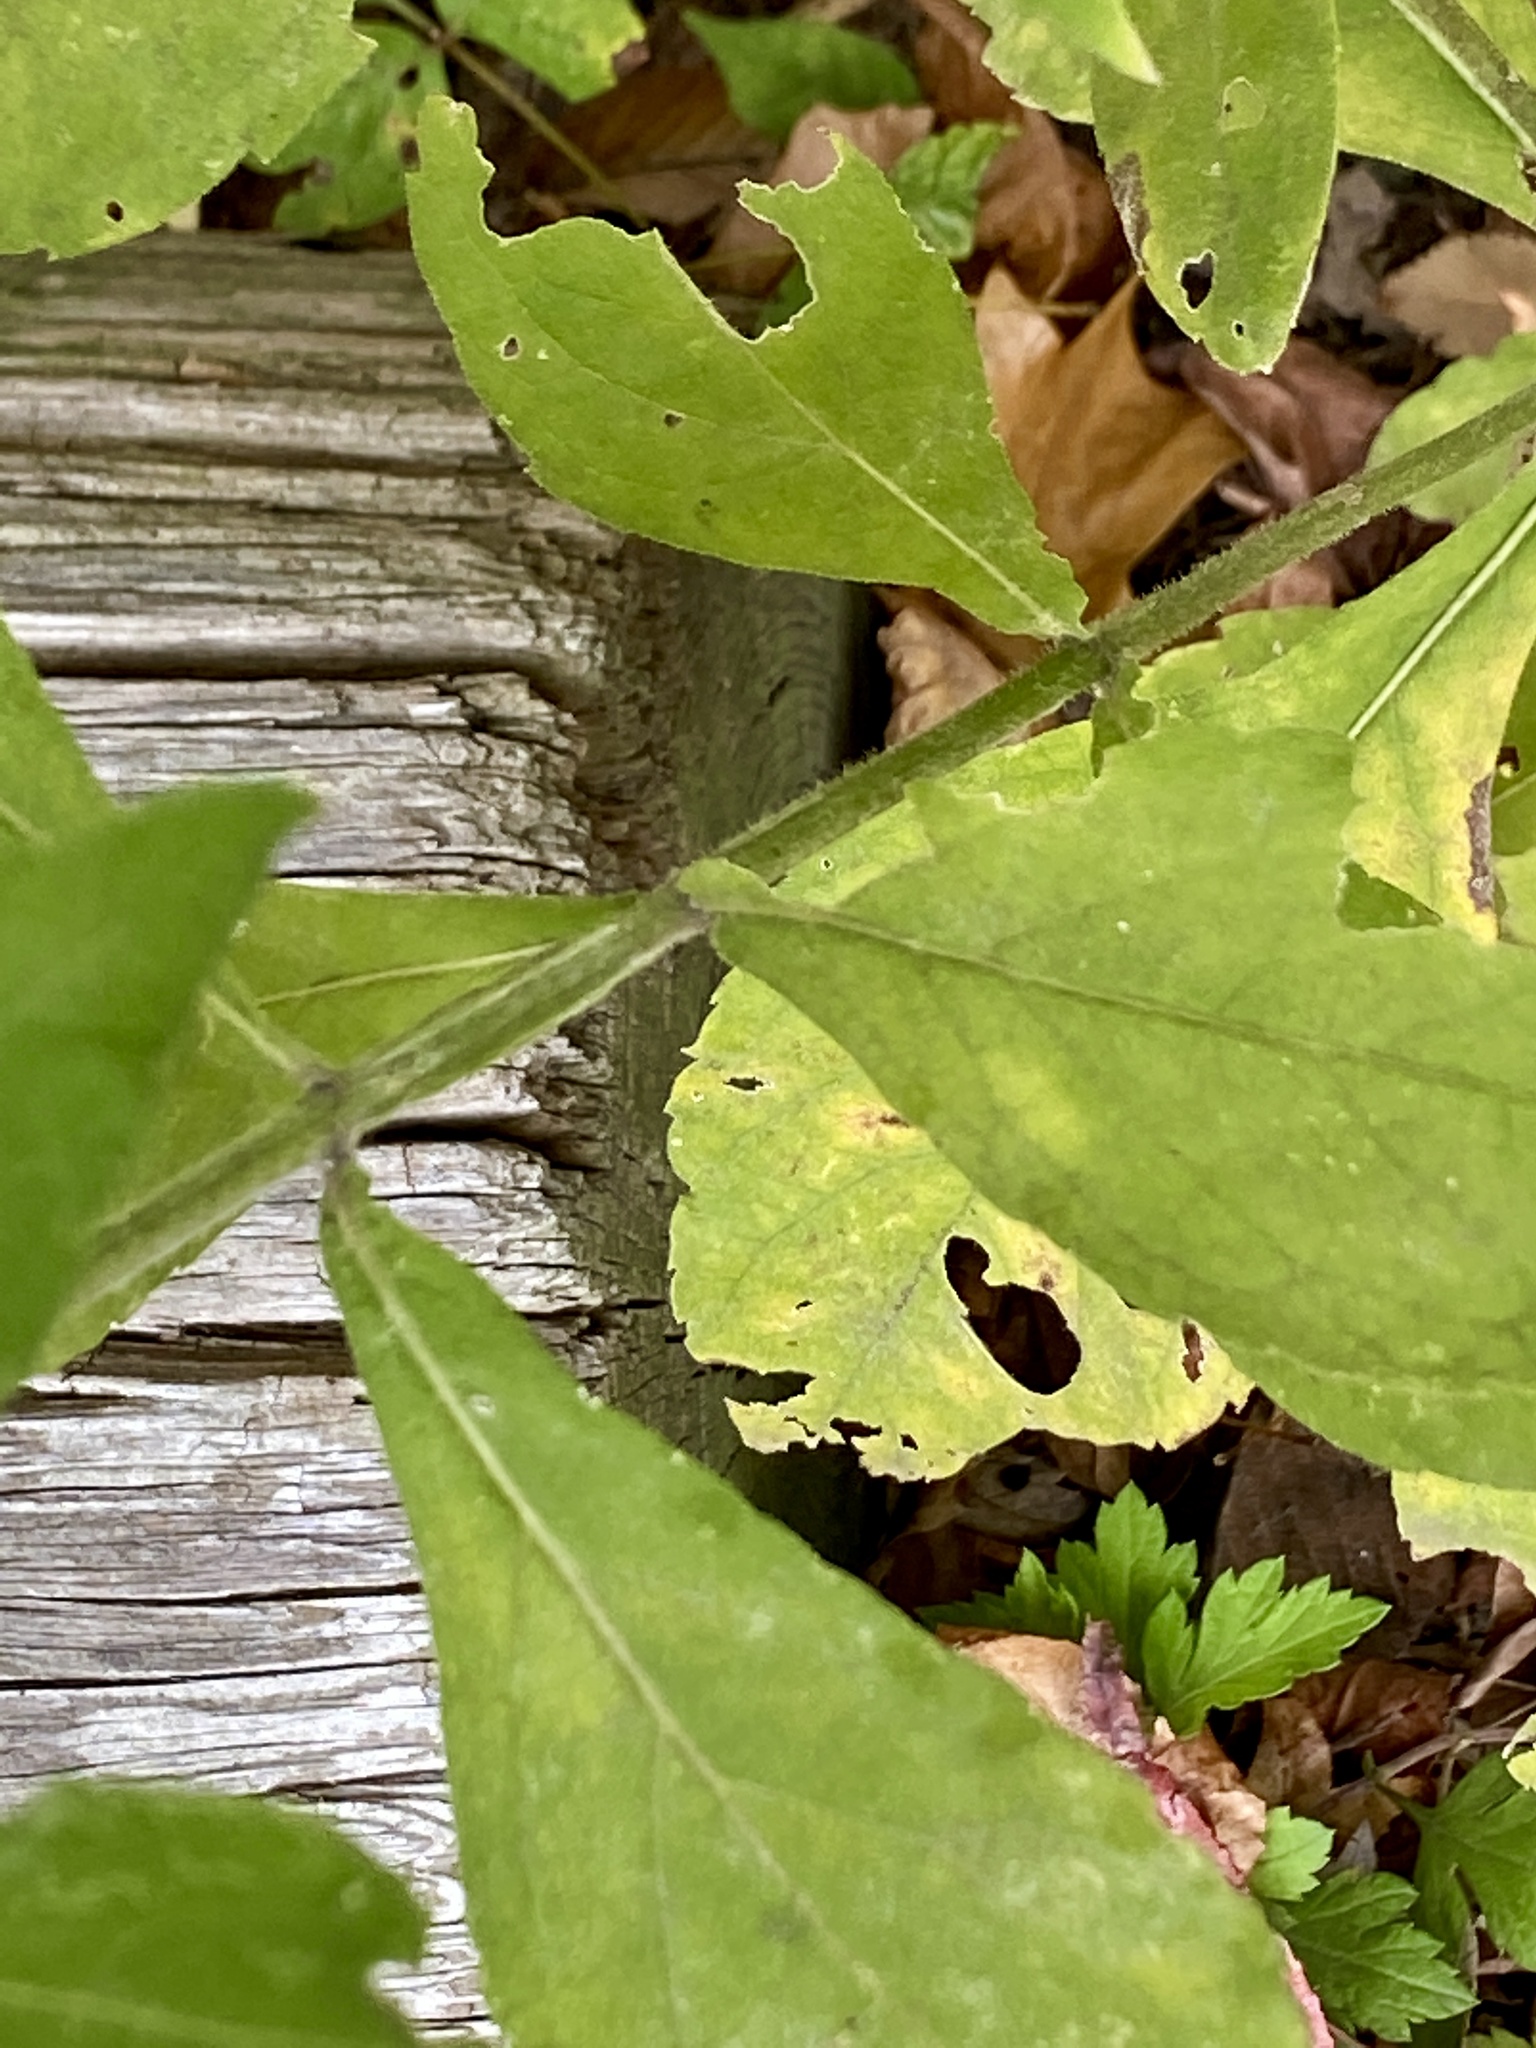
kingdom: Plantae
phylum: Tracheophyta
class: Magnoliopsida
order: Asterales
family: Asteraceae
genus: Verbesina
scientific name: Verbesina alternifolia
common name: Wingstem
